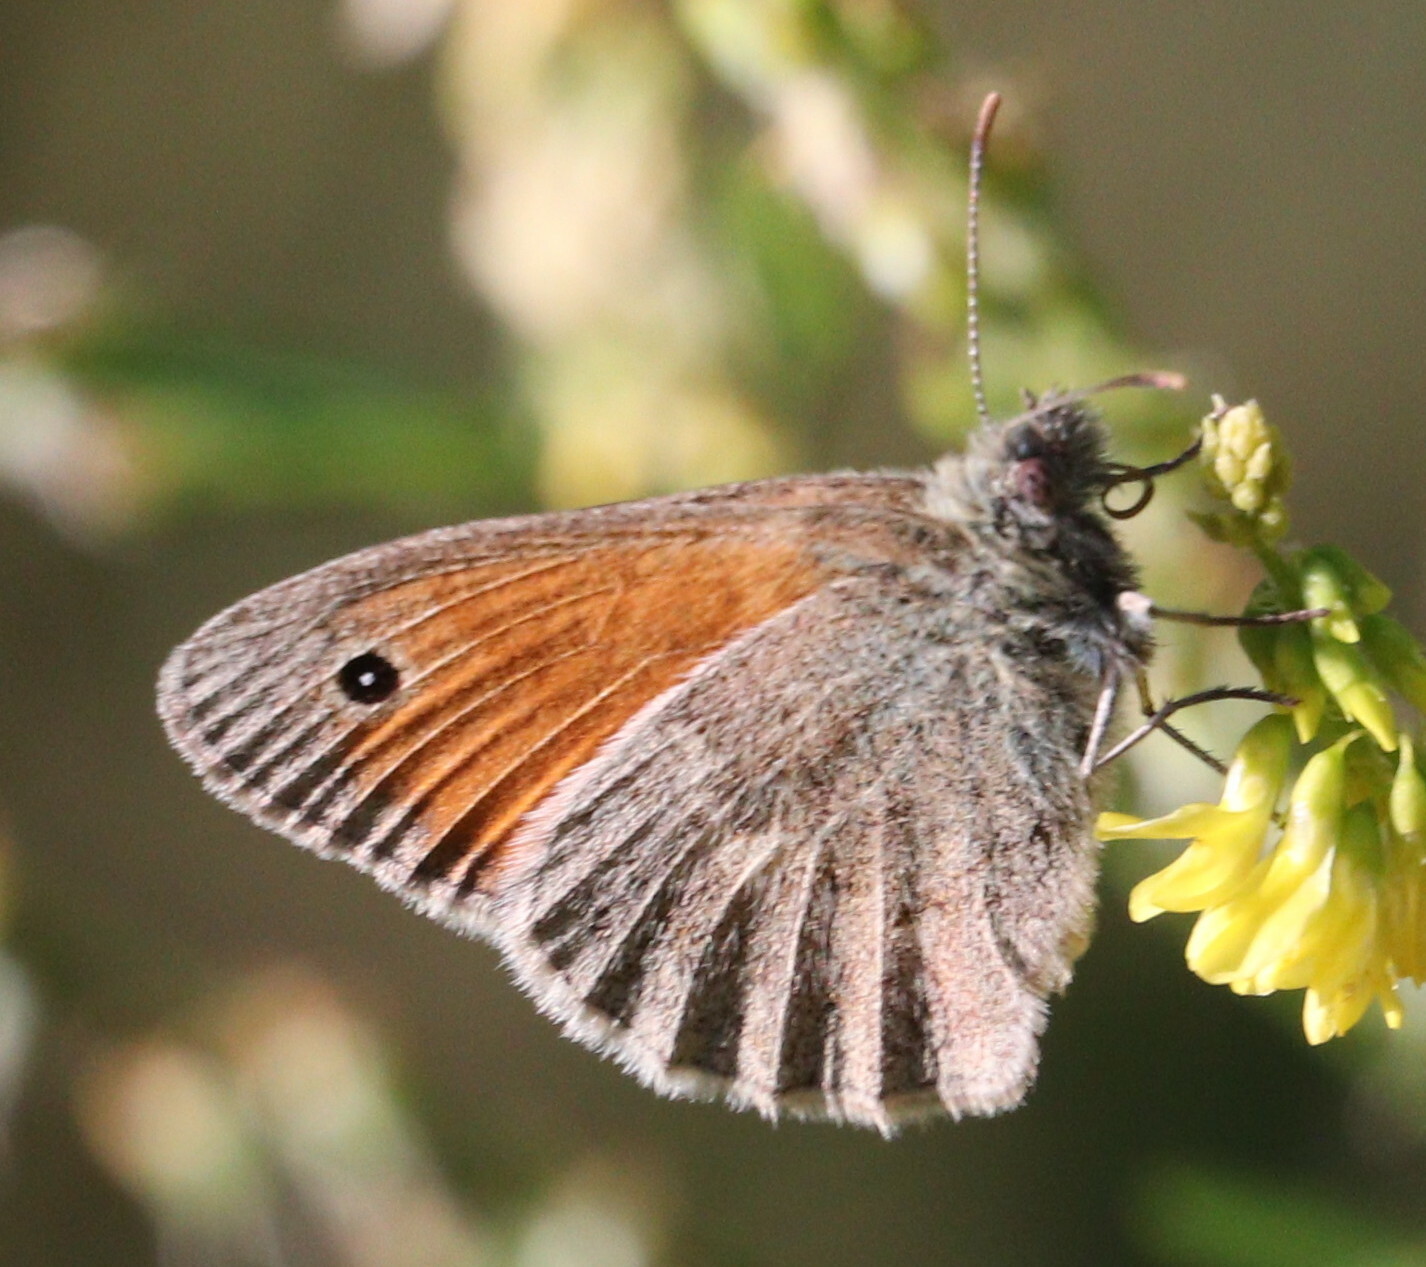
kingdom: Animalia
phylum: Arthropoda
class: Insecta
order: Lepidoptera
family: Nymphalidae
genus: Coenonympha
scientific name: Coenonympha pamphilus
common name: Small heath
